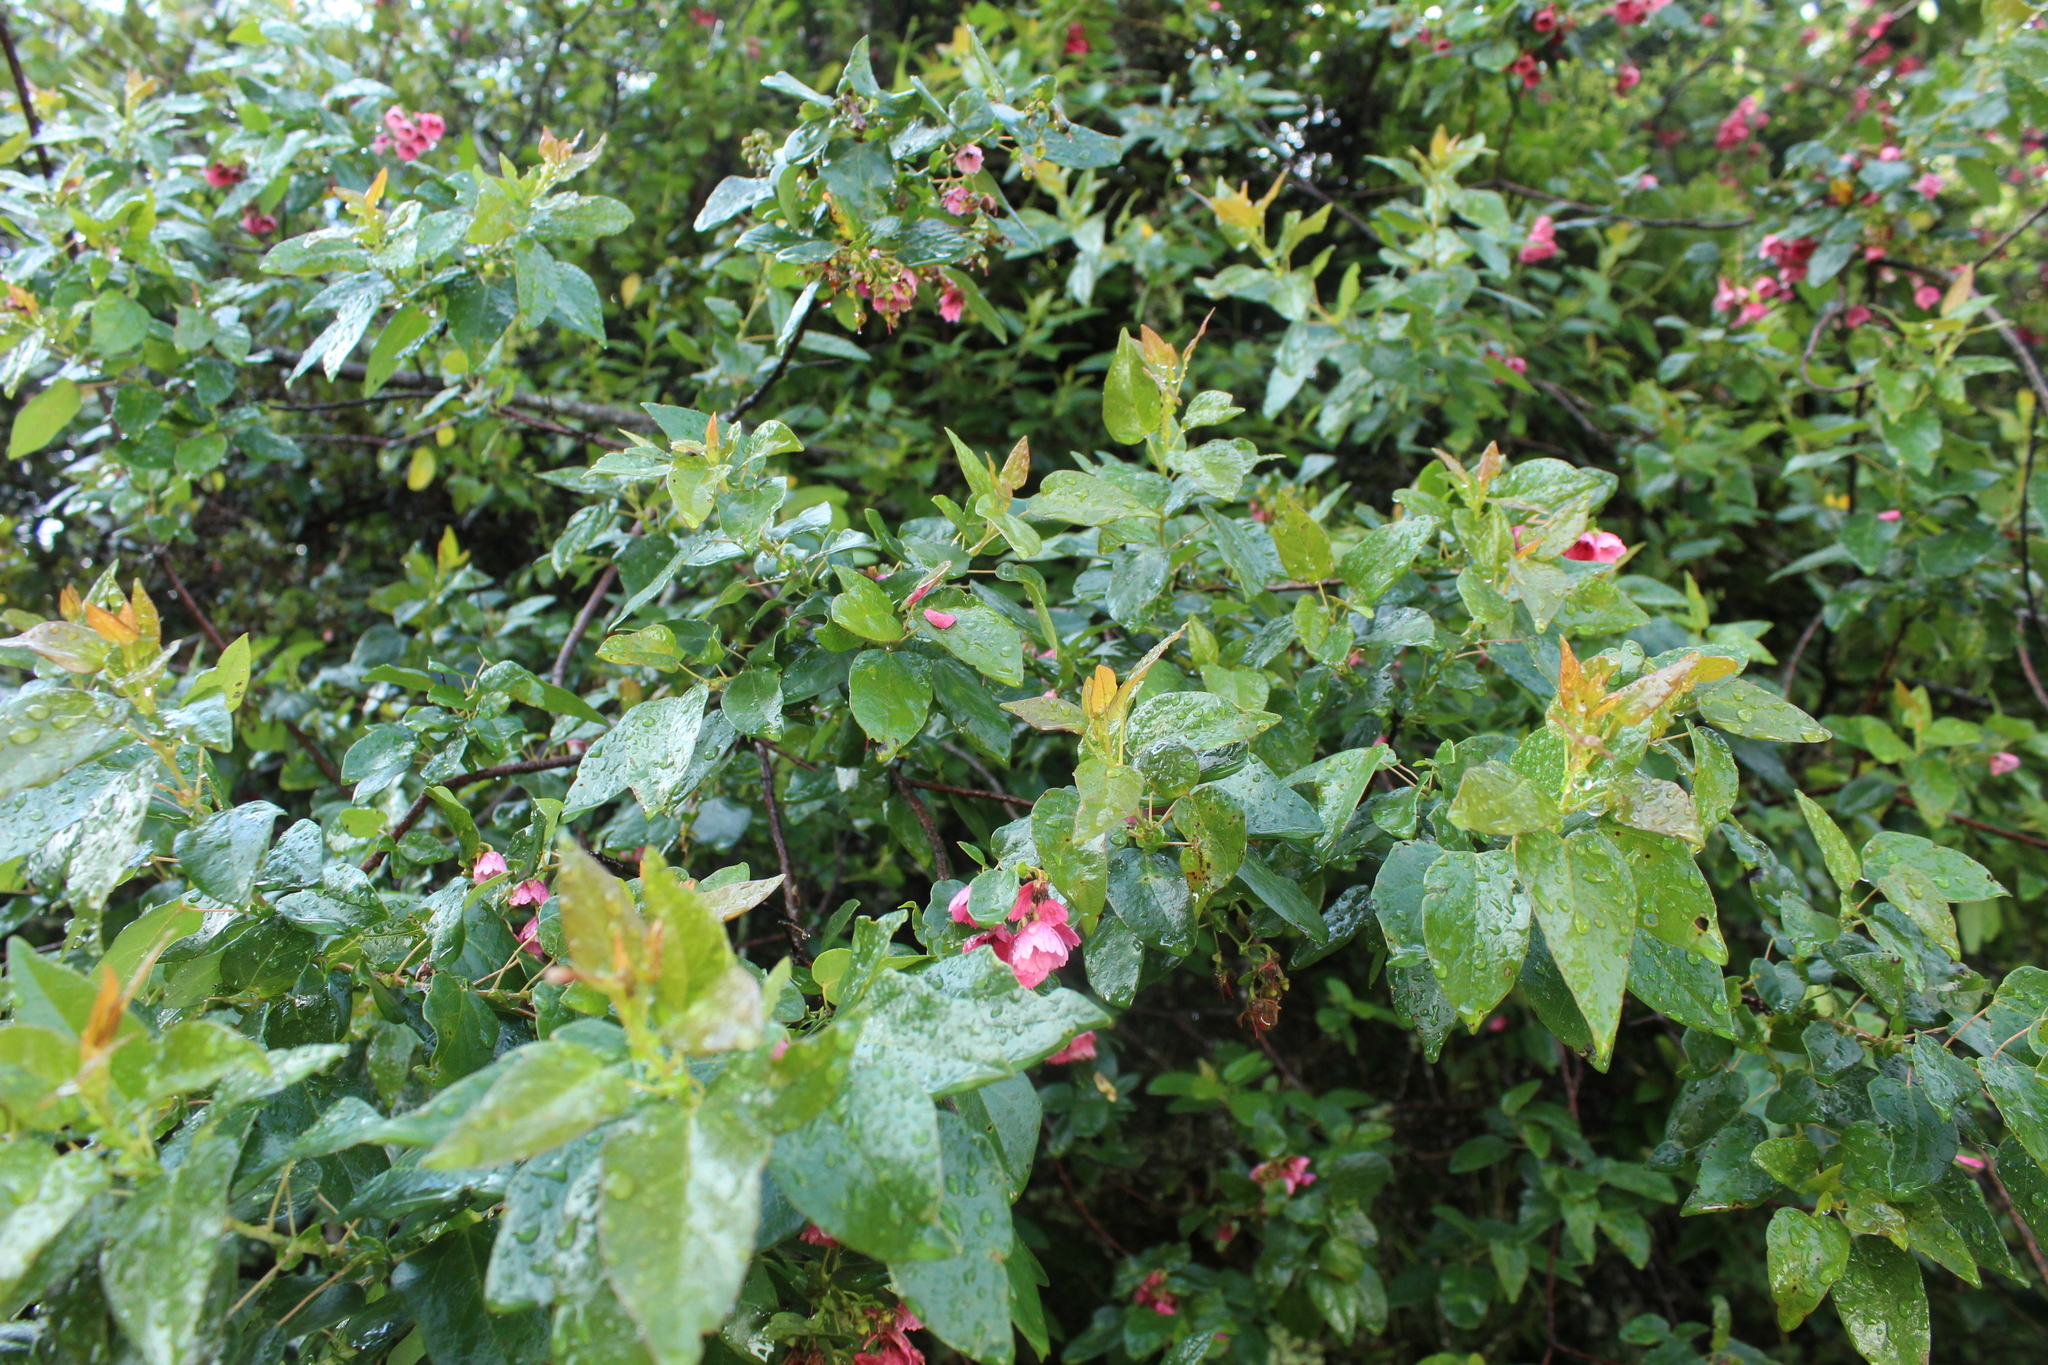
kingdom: Plantae
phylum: Tracheophyta
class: Magnoliopsida
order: Oxalidales
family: Elaeocarpaceae
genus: Vallea
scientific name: Vallea stipularis
